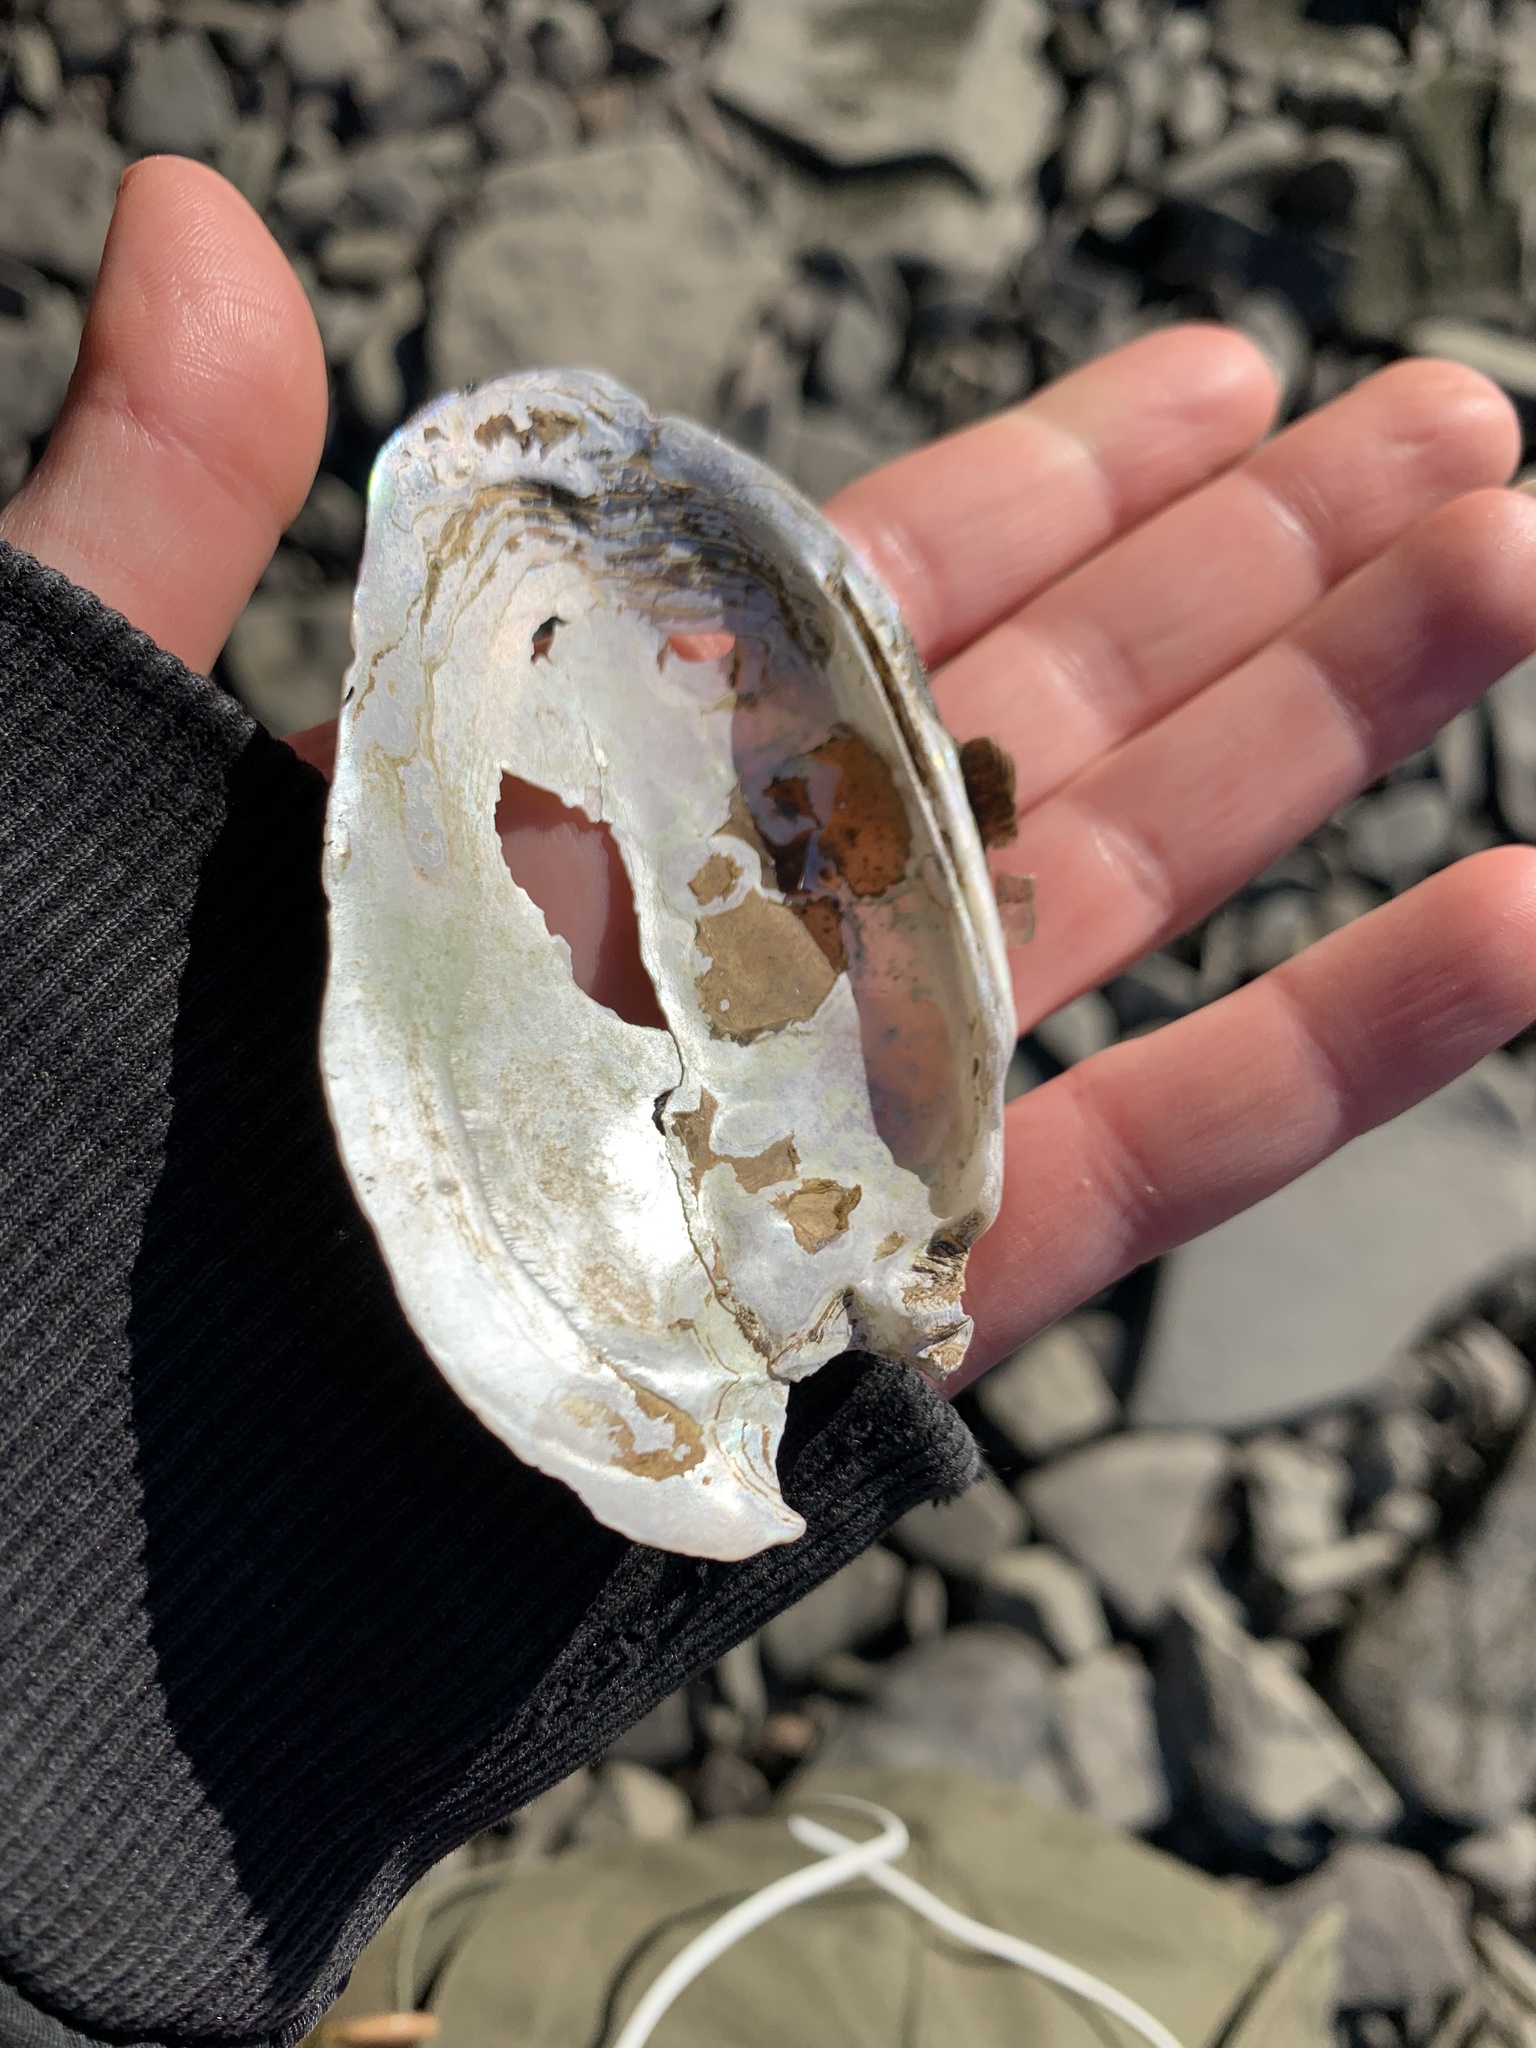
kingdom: Animalia
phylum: Mollusca
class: Bivalvia
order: Unionida
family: Unionidae
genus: Elliptio
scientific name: Elliptio complanata
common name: Eastern elliptio
